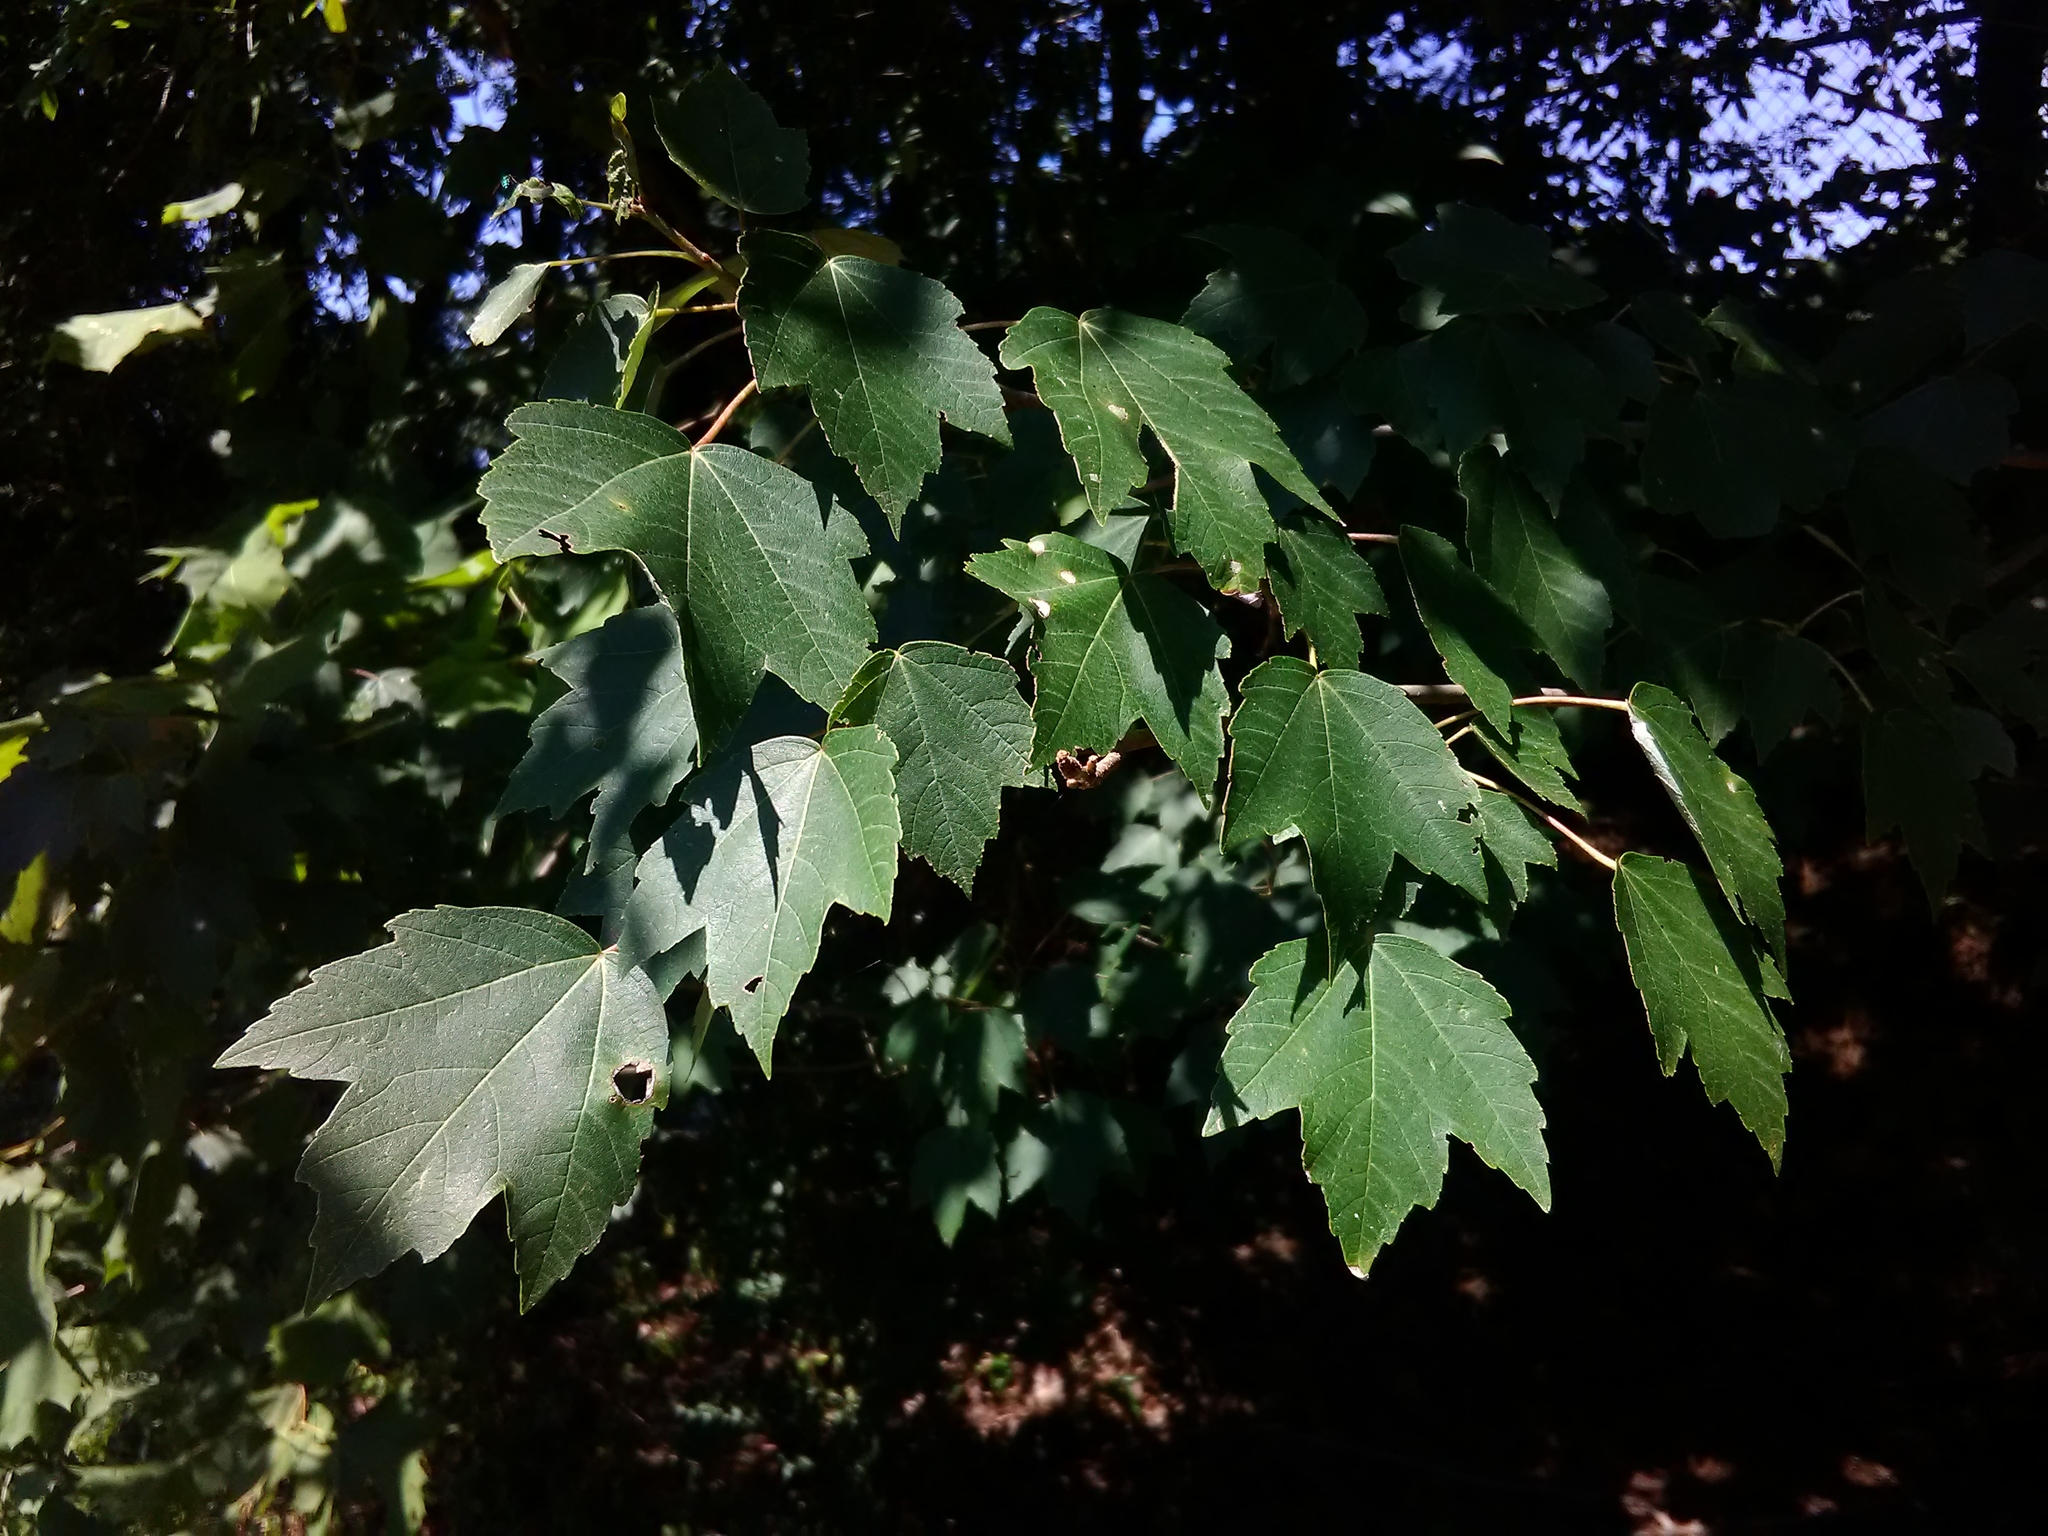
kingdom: Plantae
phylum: Tracheophyta
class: Magnoliopsida
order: Sapindales
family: Sapindaceae
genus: Acer
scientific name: Acer rubrum
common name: Red maple
